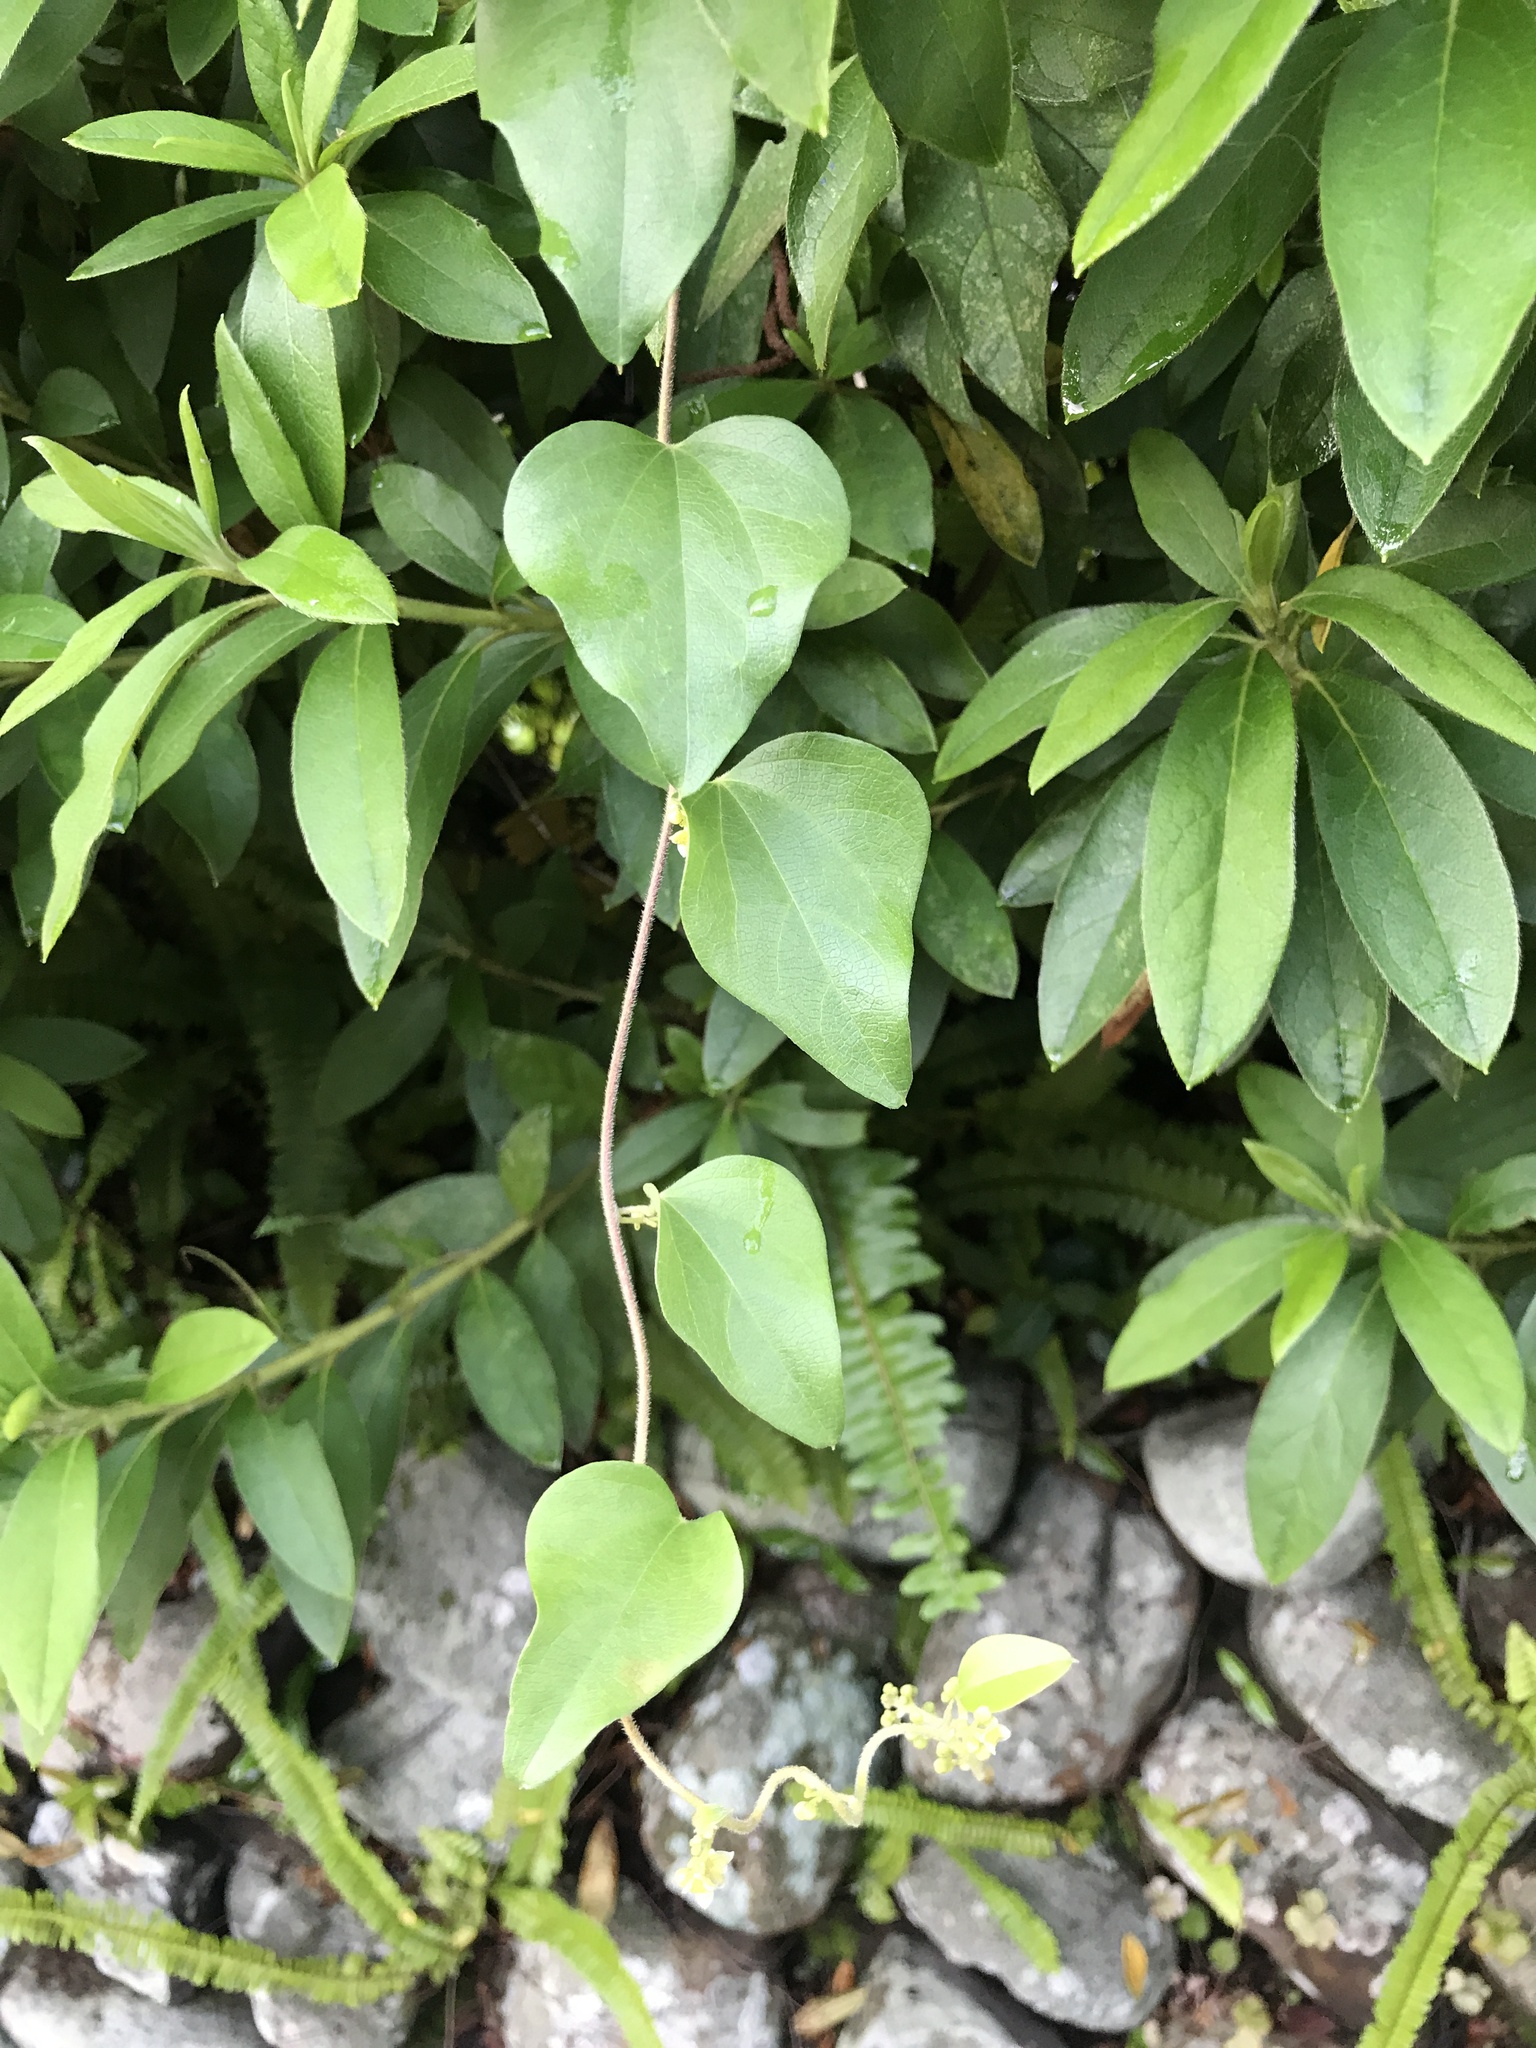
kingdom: Plantae
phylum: Tracheophyta
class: Magnoliopsida
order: Ranunculales
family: Menispermaceae
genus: Cocculus
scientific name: Cocculus orbiculatus
